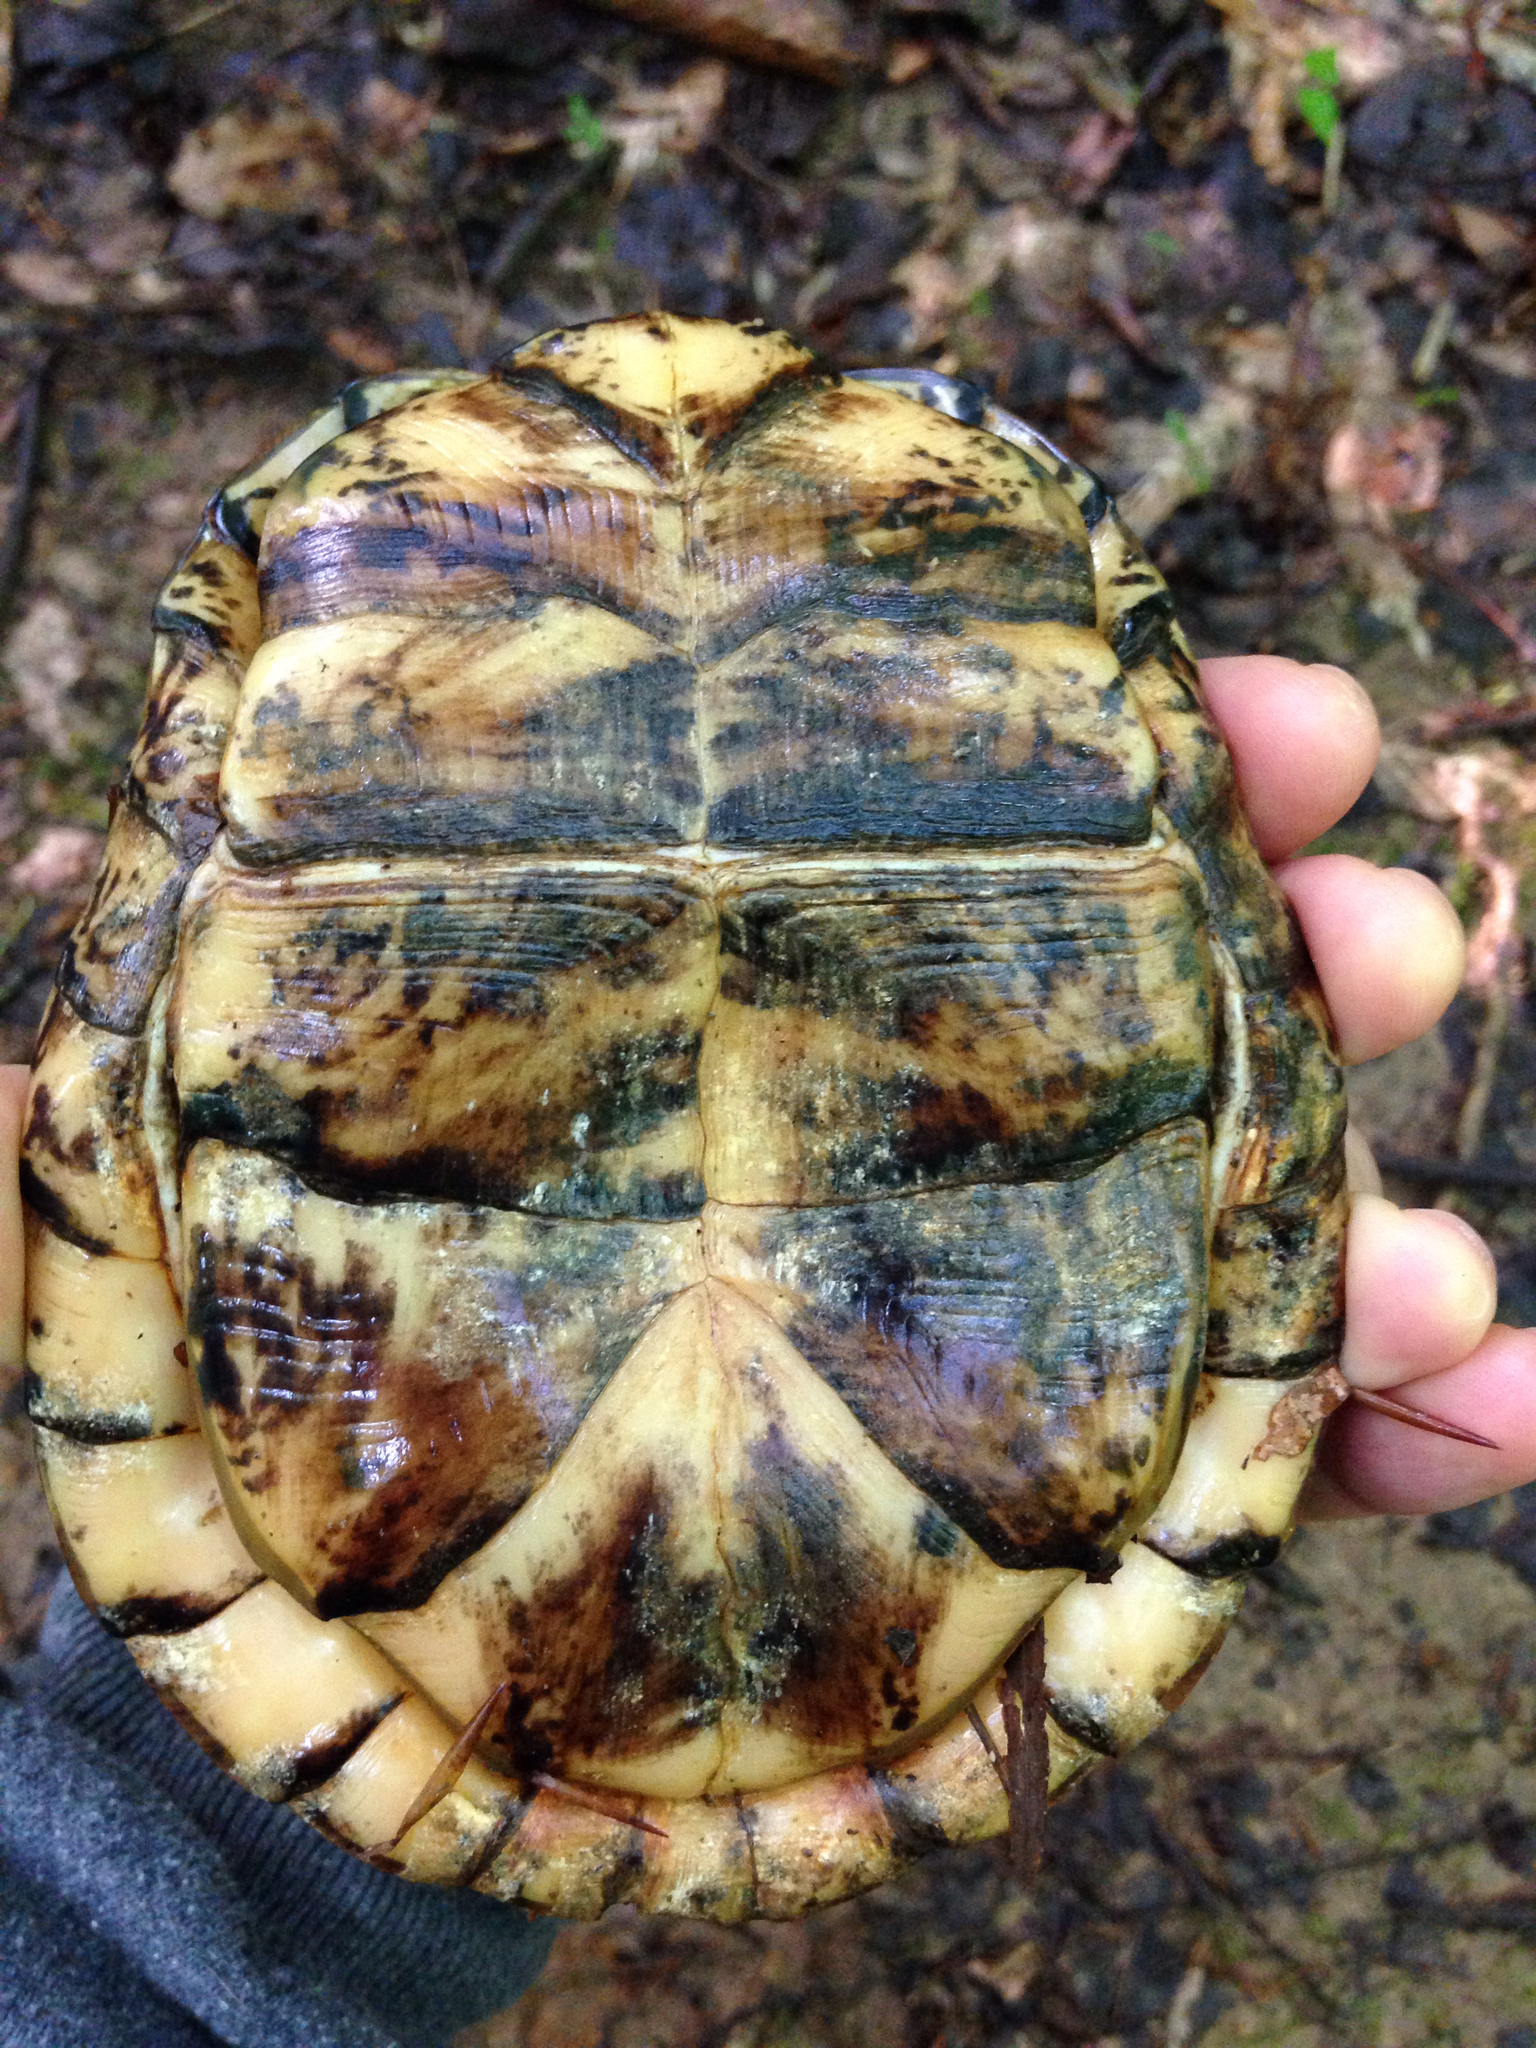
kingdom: Animalia
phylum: Chordata
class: Testudines
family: Emydidae
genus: Terrapene
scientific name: Terrapene carolina
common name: Common box turtle
